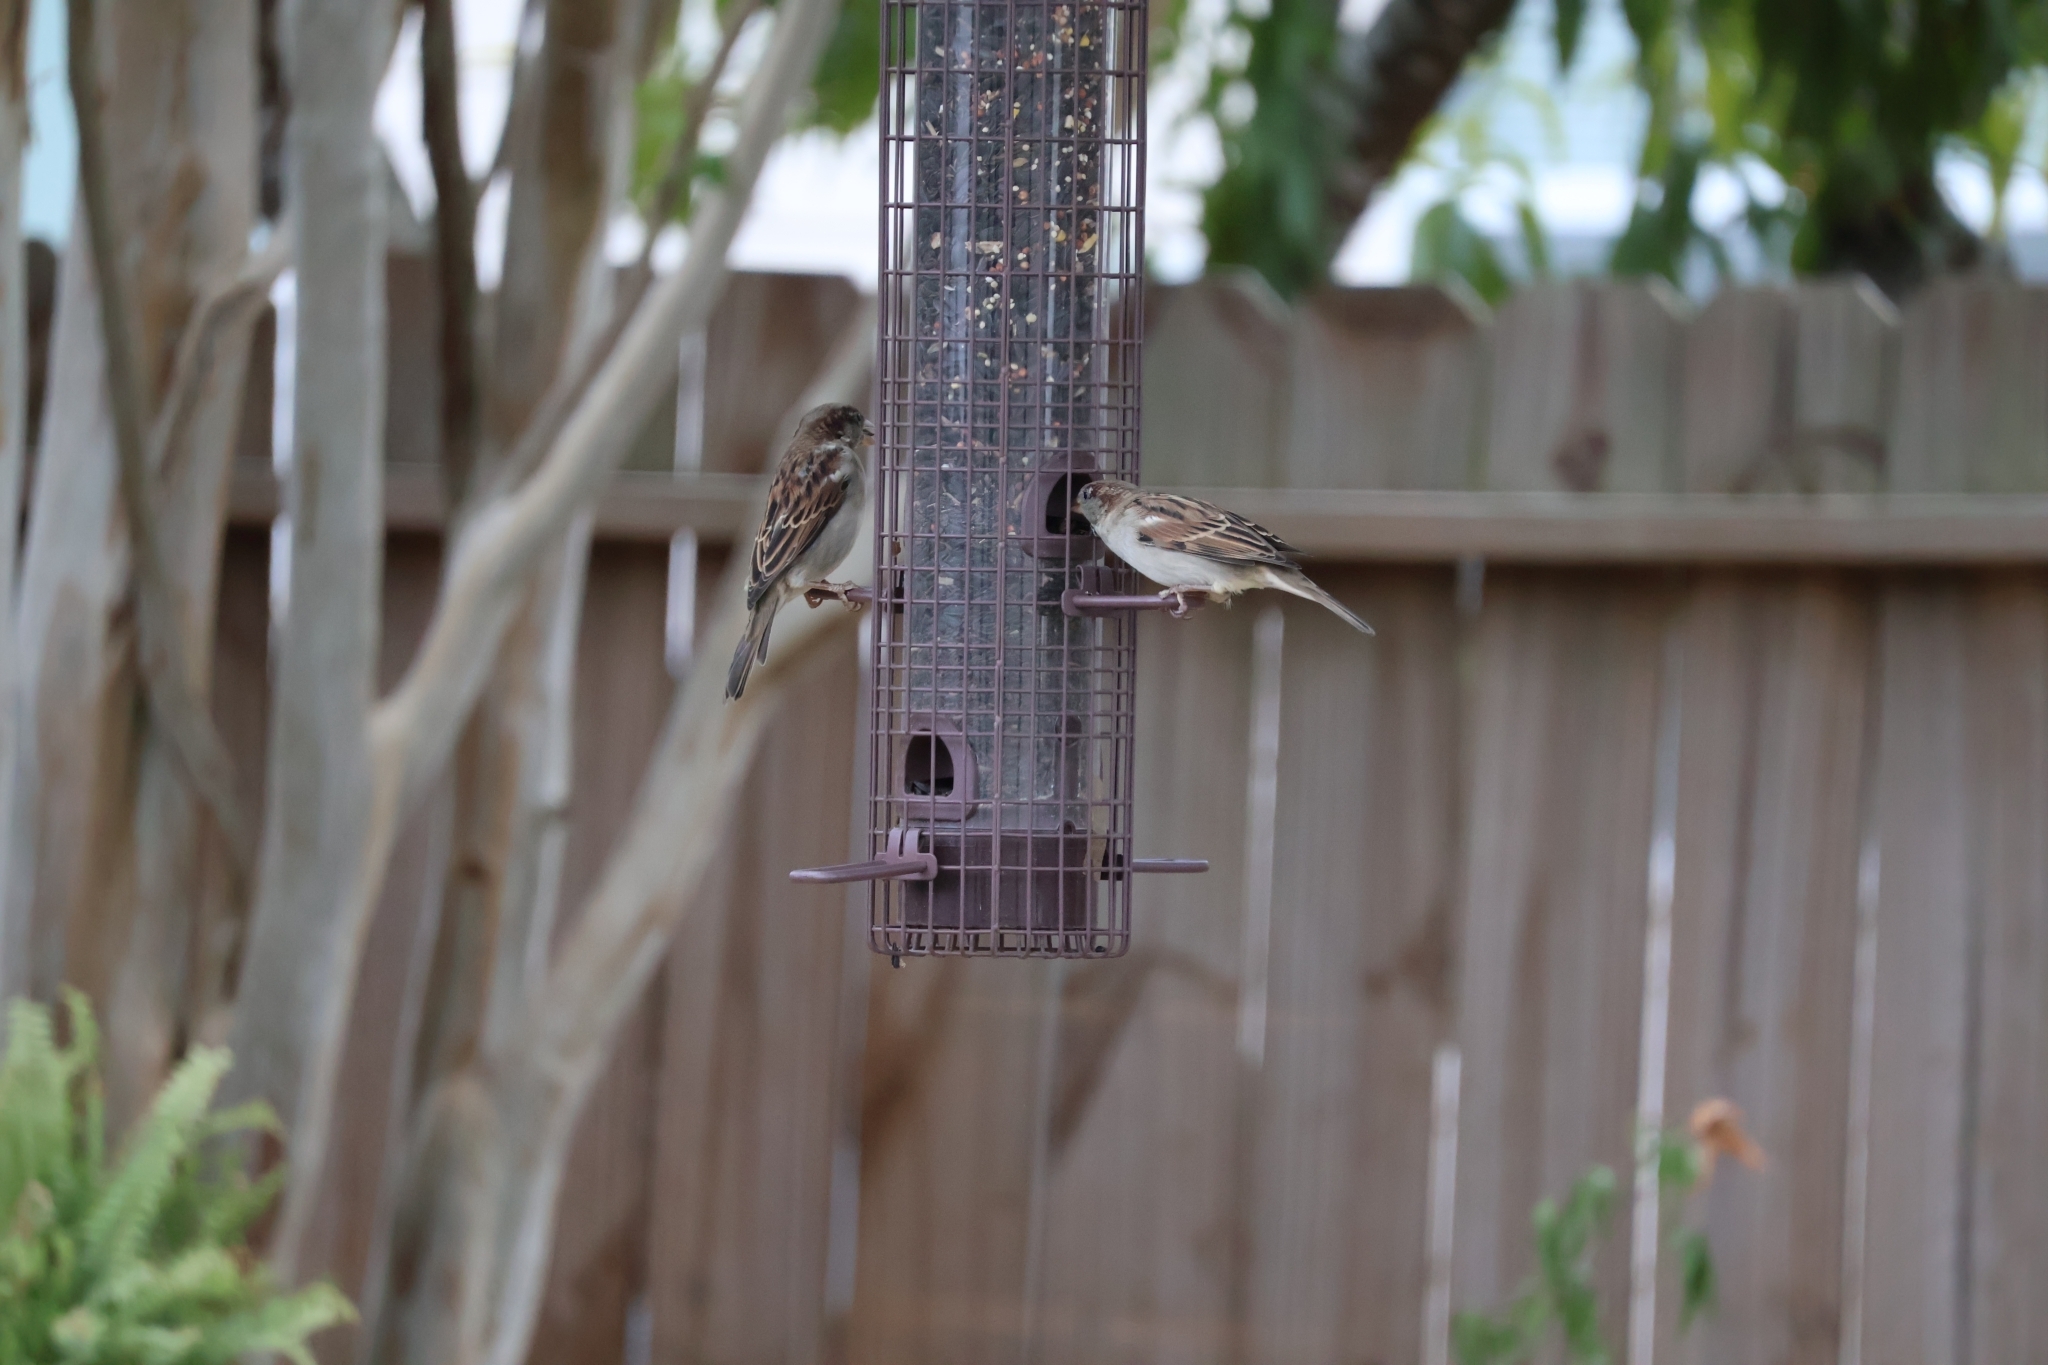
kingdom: Animalia
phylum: Chordata
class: Aves
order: Passeriformes
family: Passeridae
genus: Passer
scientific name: Passer domesticus
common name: House sparrow
